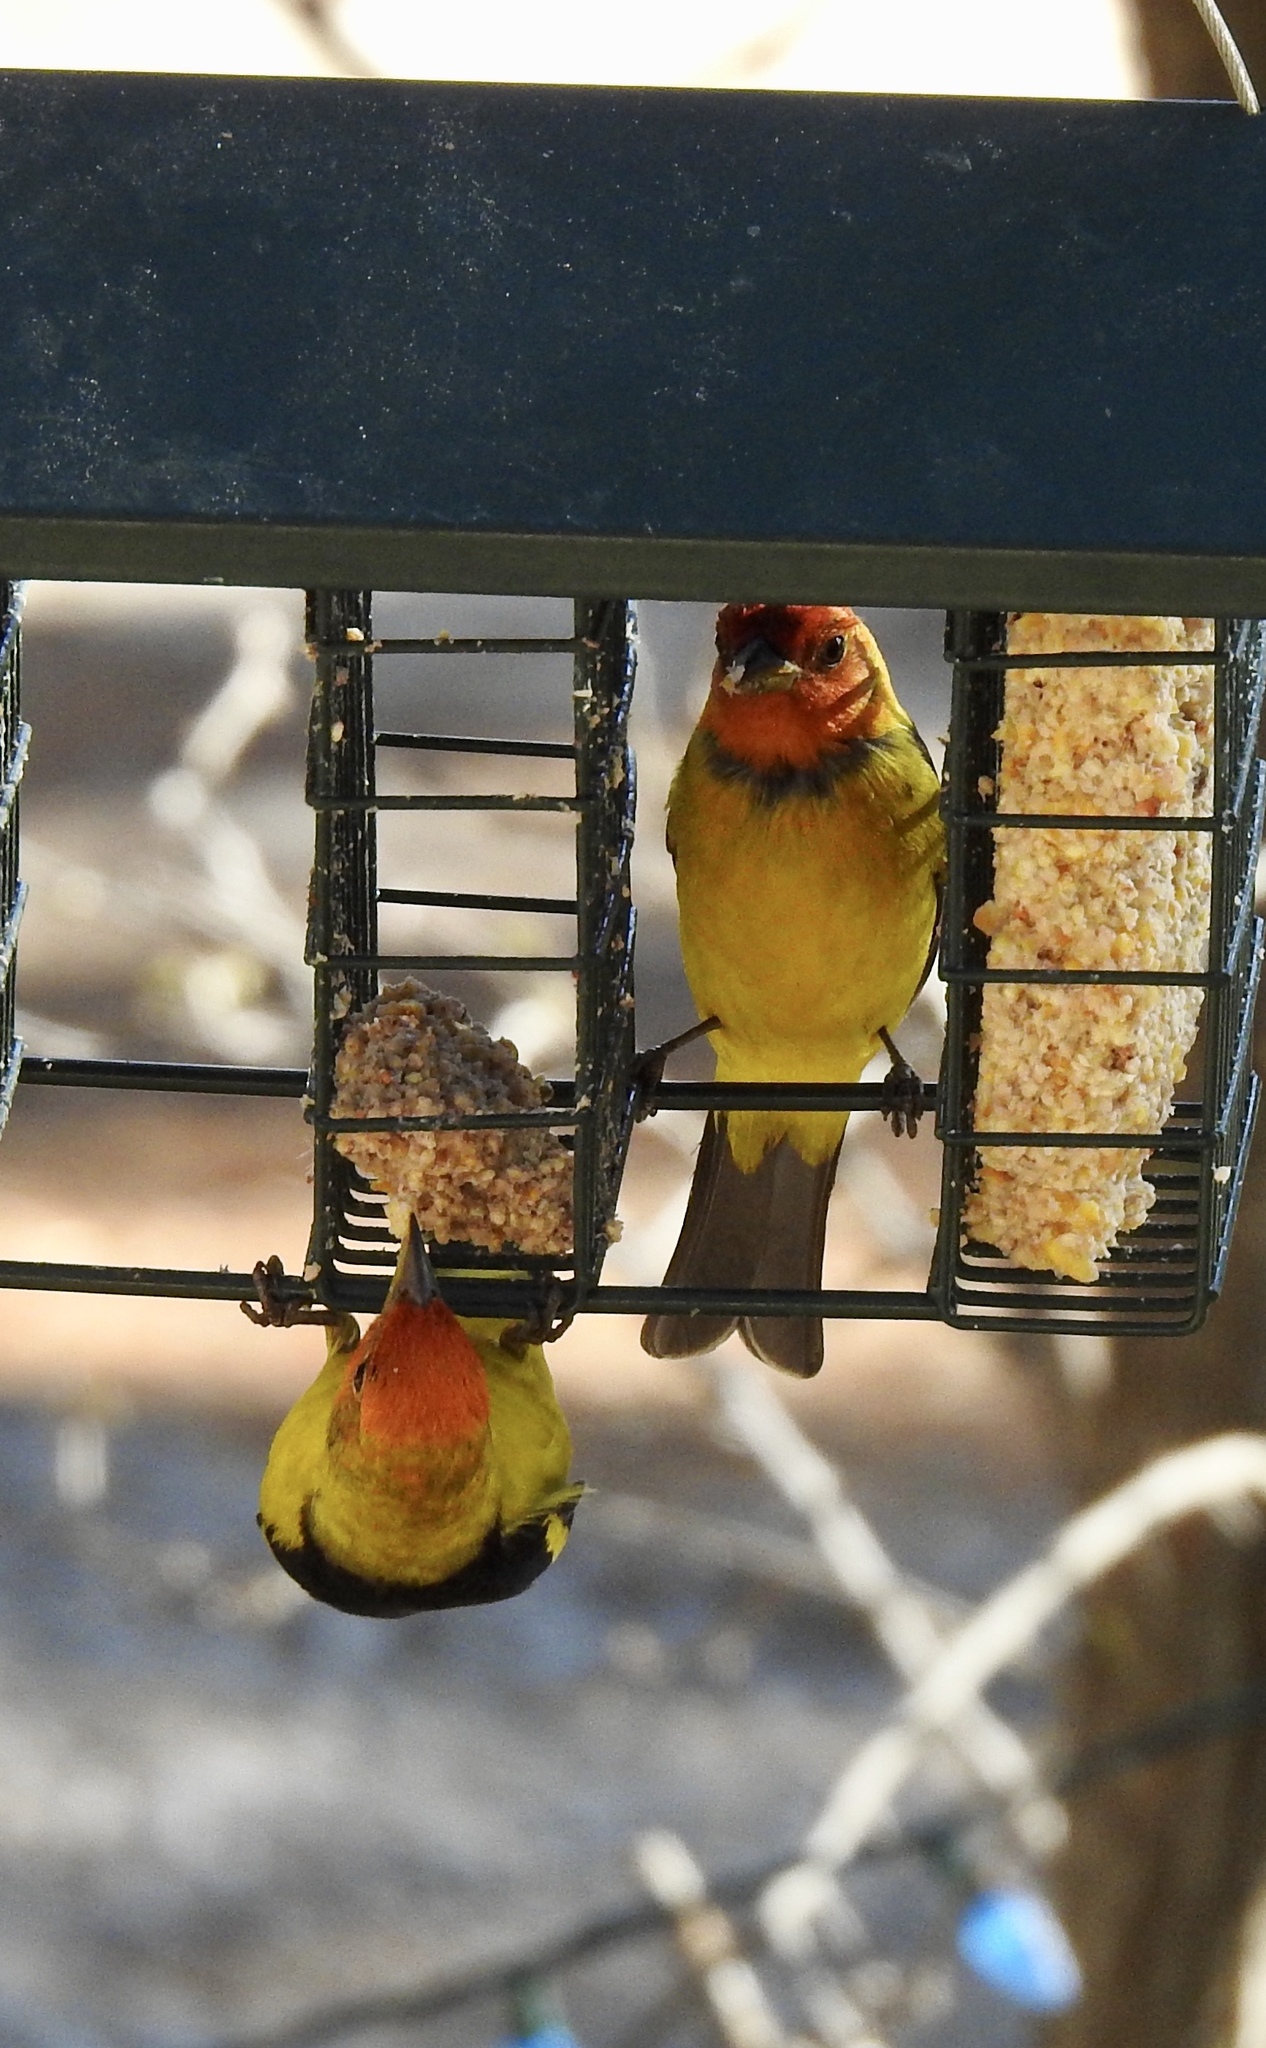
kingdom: Animalia
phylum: Chordata
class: Aves
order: Passeriformes
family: Cardinalidae
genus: Piranga
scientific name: Piranga ludoviciana
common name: Western tanager
